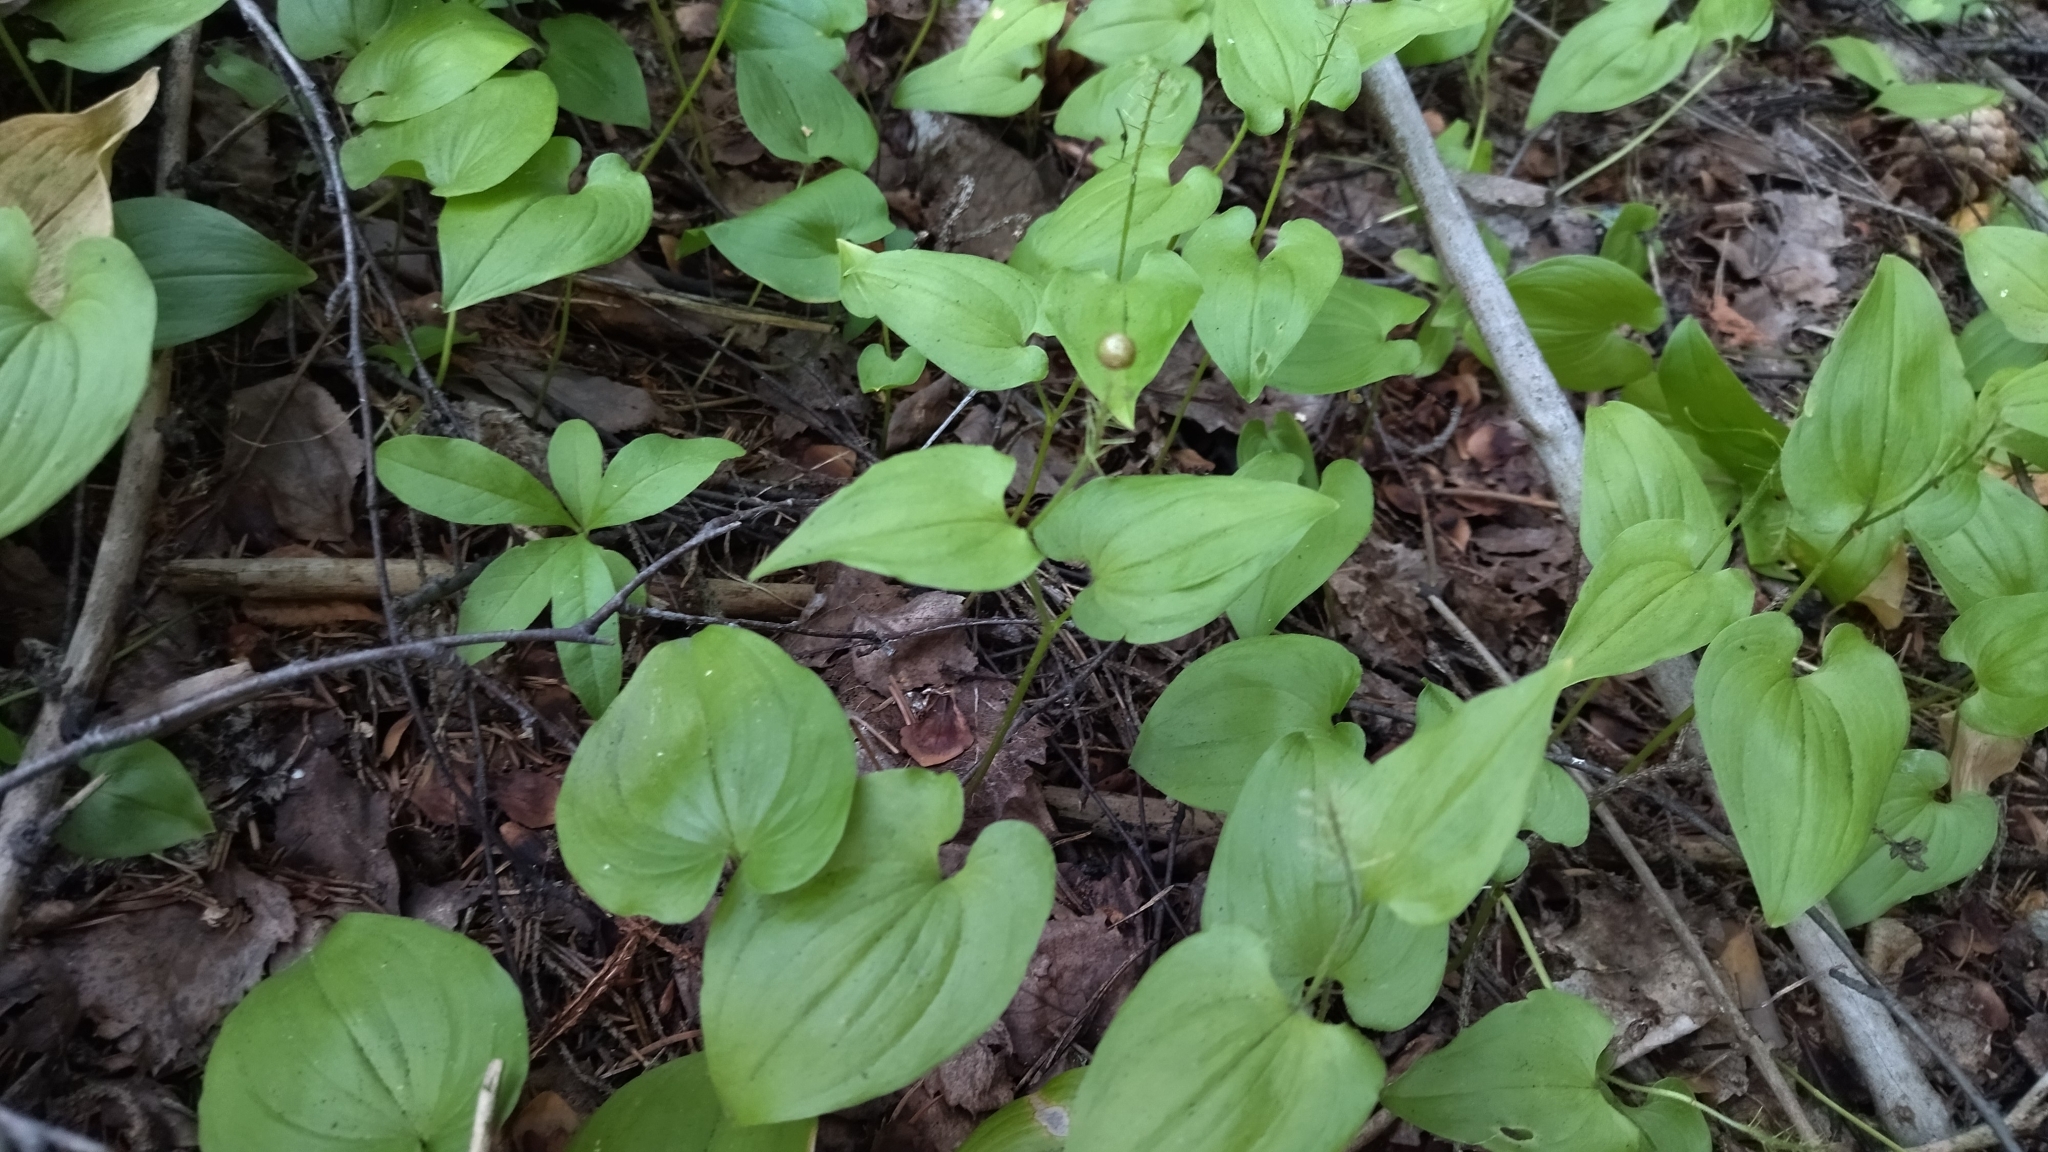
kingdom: Plantae
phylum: Tracheophyta
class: Liliopsida
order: Asparagales
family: Asparagaceae
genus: Maianthemum
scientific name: Maianthemum bifolium
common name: May lily
